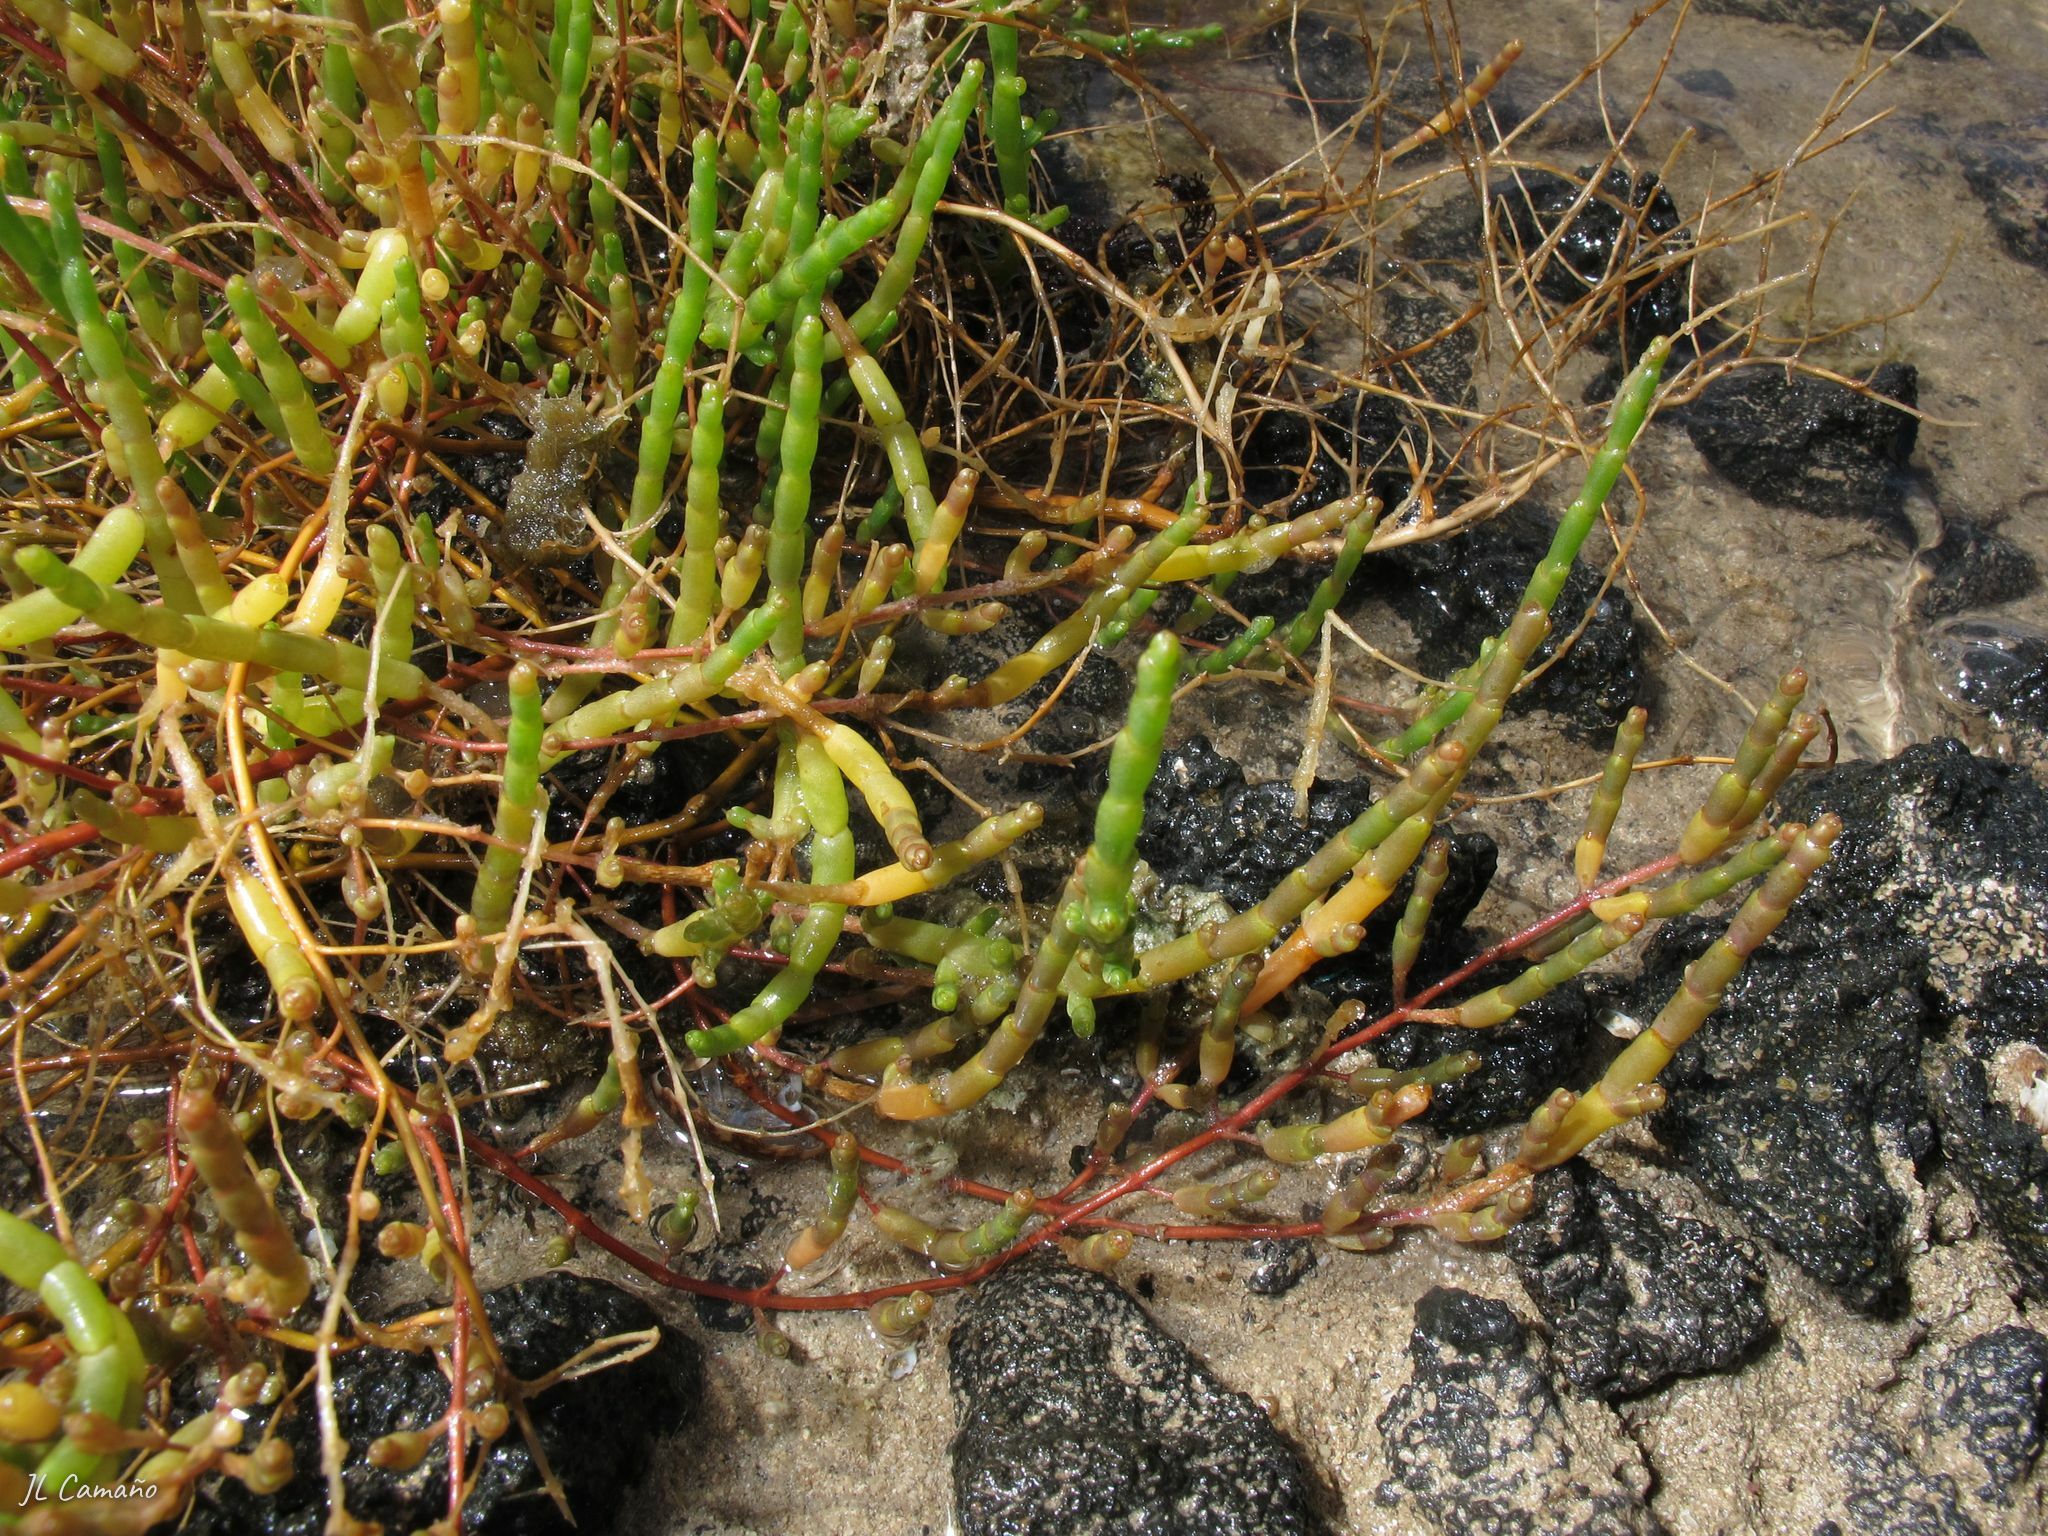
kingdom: Plantae
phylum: Tracheophyta
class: Magnoliopsida
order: Caryophyllales
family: Amaranthaceae
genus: Salicornia
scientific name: Salicornia perennis
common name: Chicken claws
